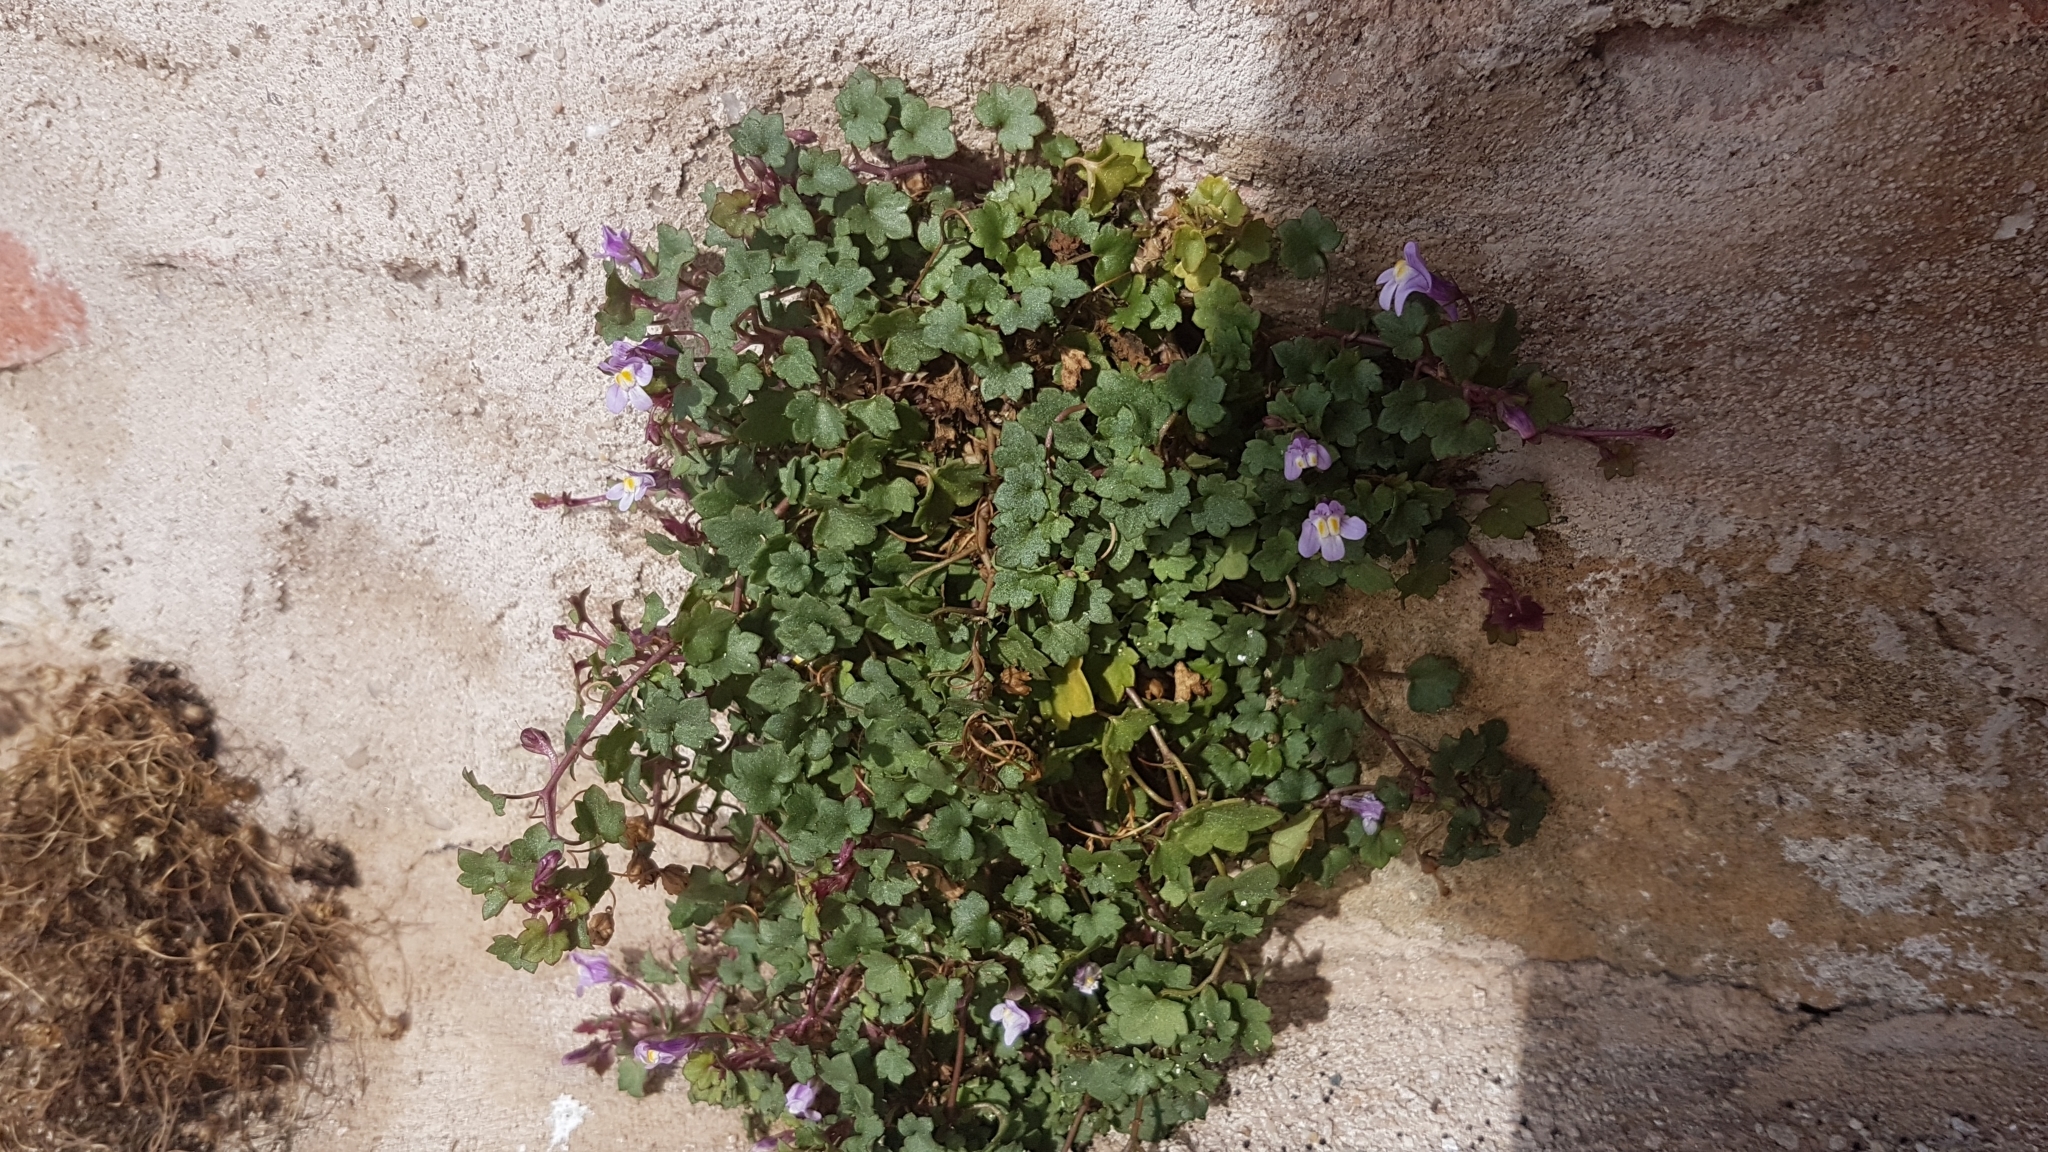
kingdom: Plantae
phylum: Tracheophyta
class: Magnoliopsida
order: Lamiales
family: Plantaginaceae
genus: Cymbalaria
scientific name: Cymbalaria muralis
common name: Ivy-leaved toadflax
